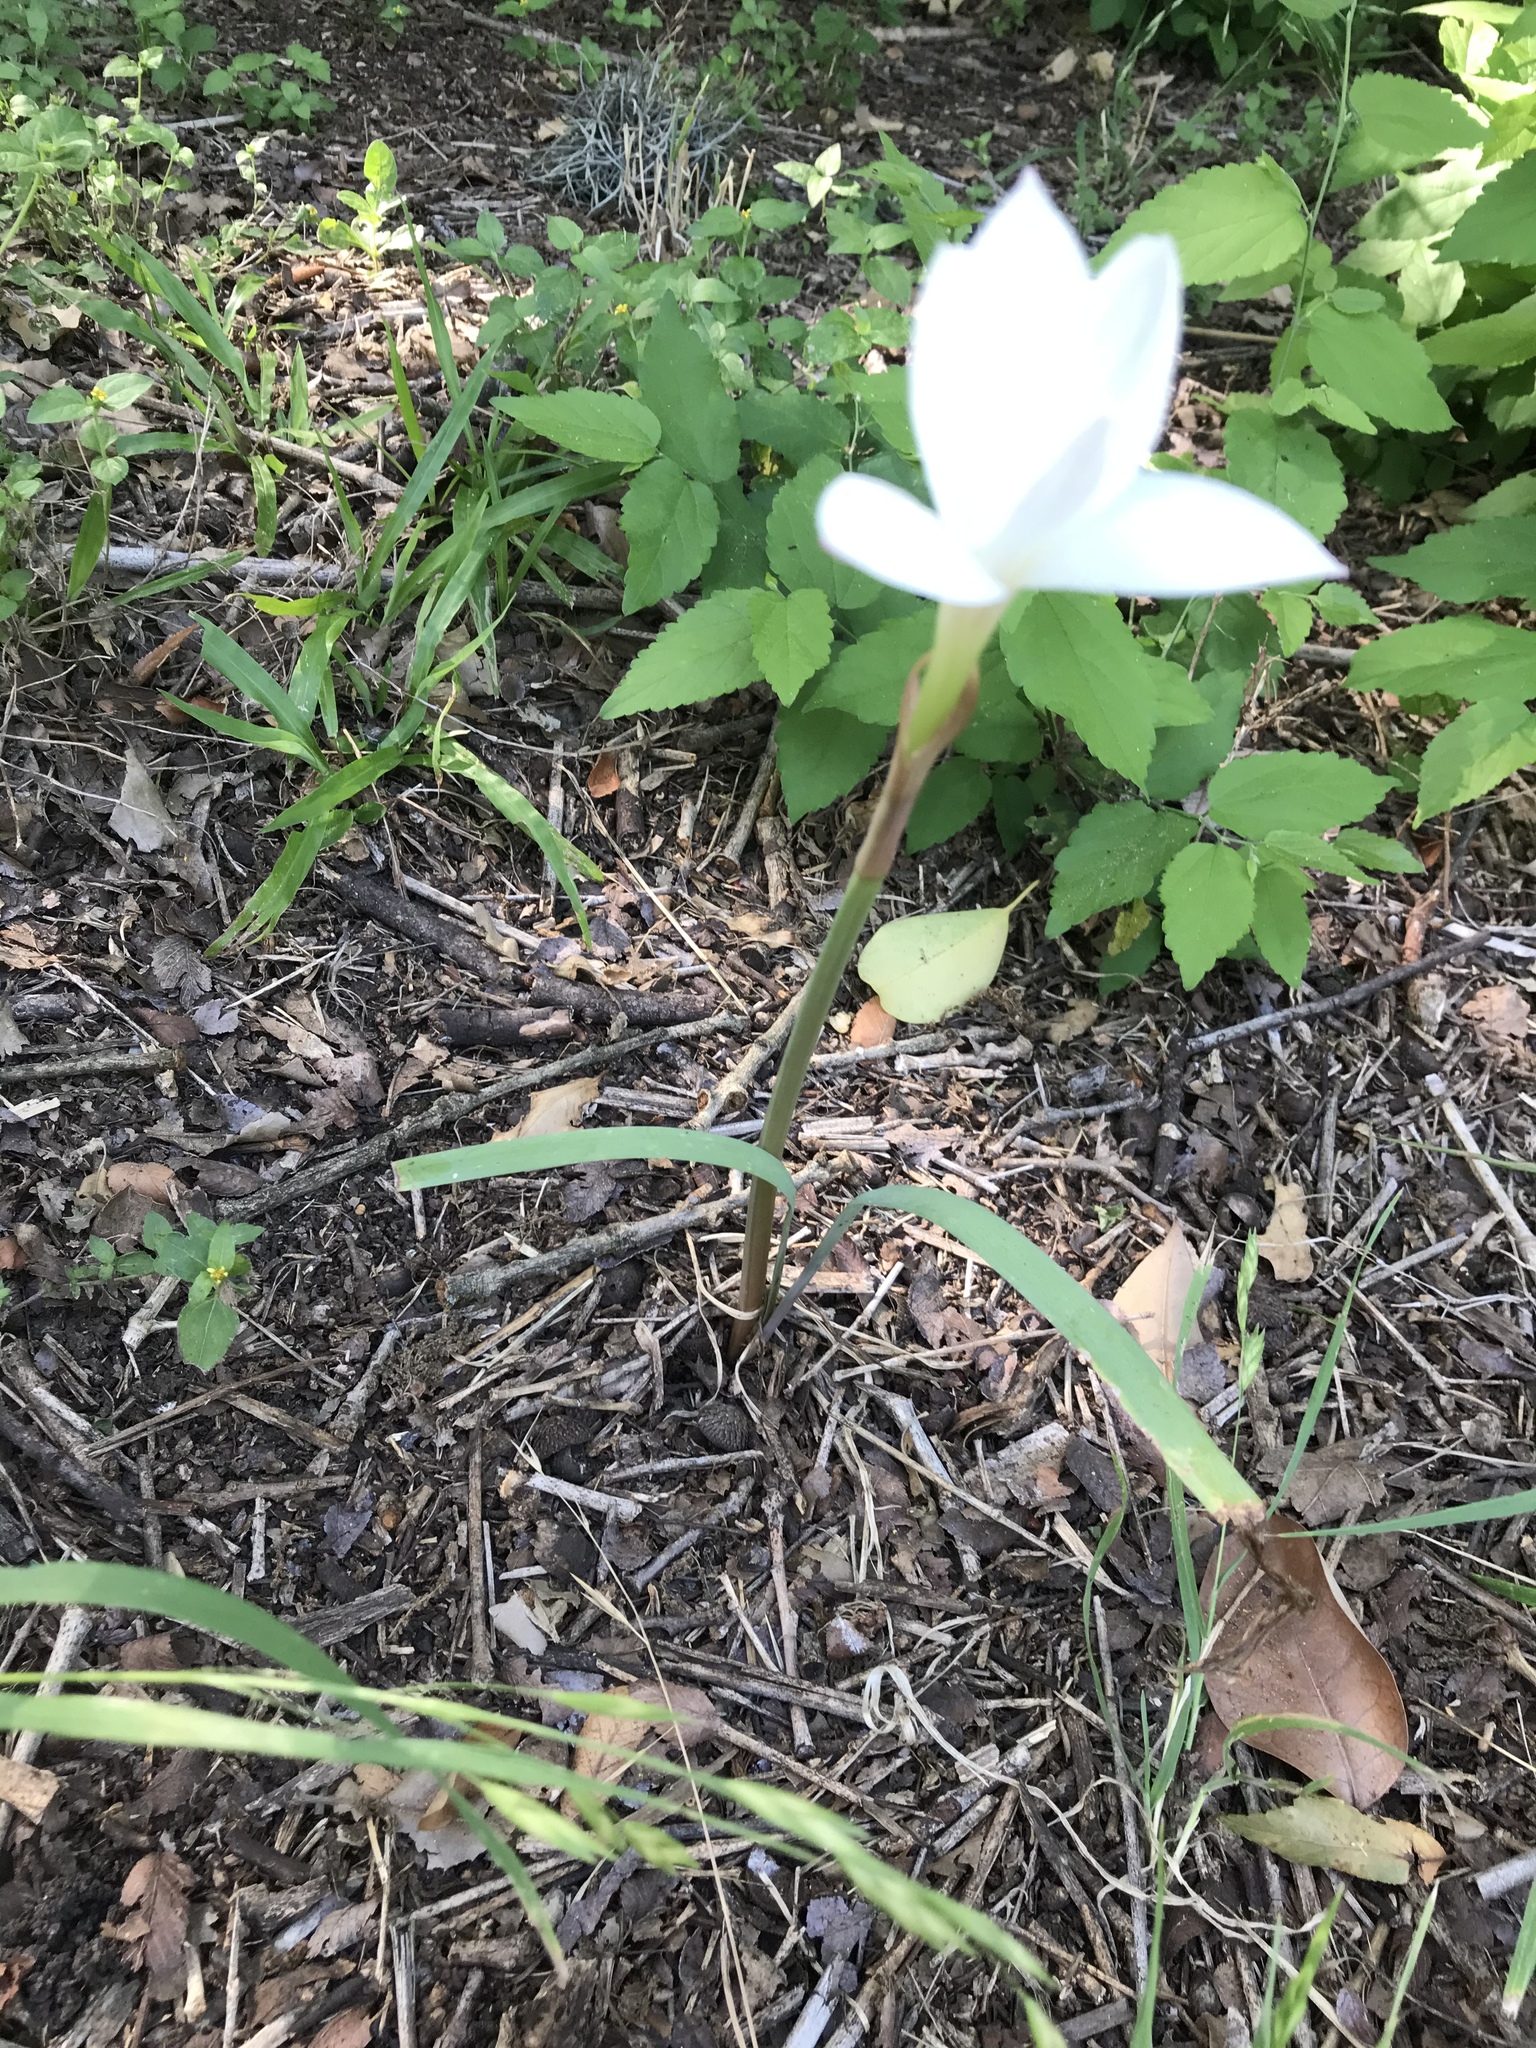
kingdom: Plantae
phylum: Tracheophyta
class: Liliopsida
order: Asparagales
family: Amaryllidaceae
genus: Zephyranthes
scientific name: Zephyranthes drummondii
